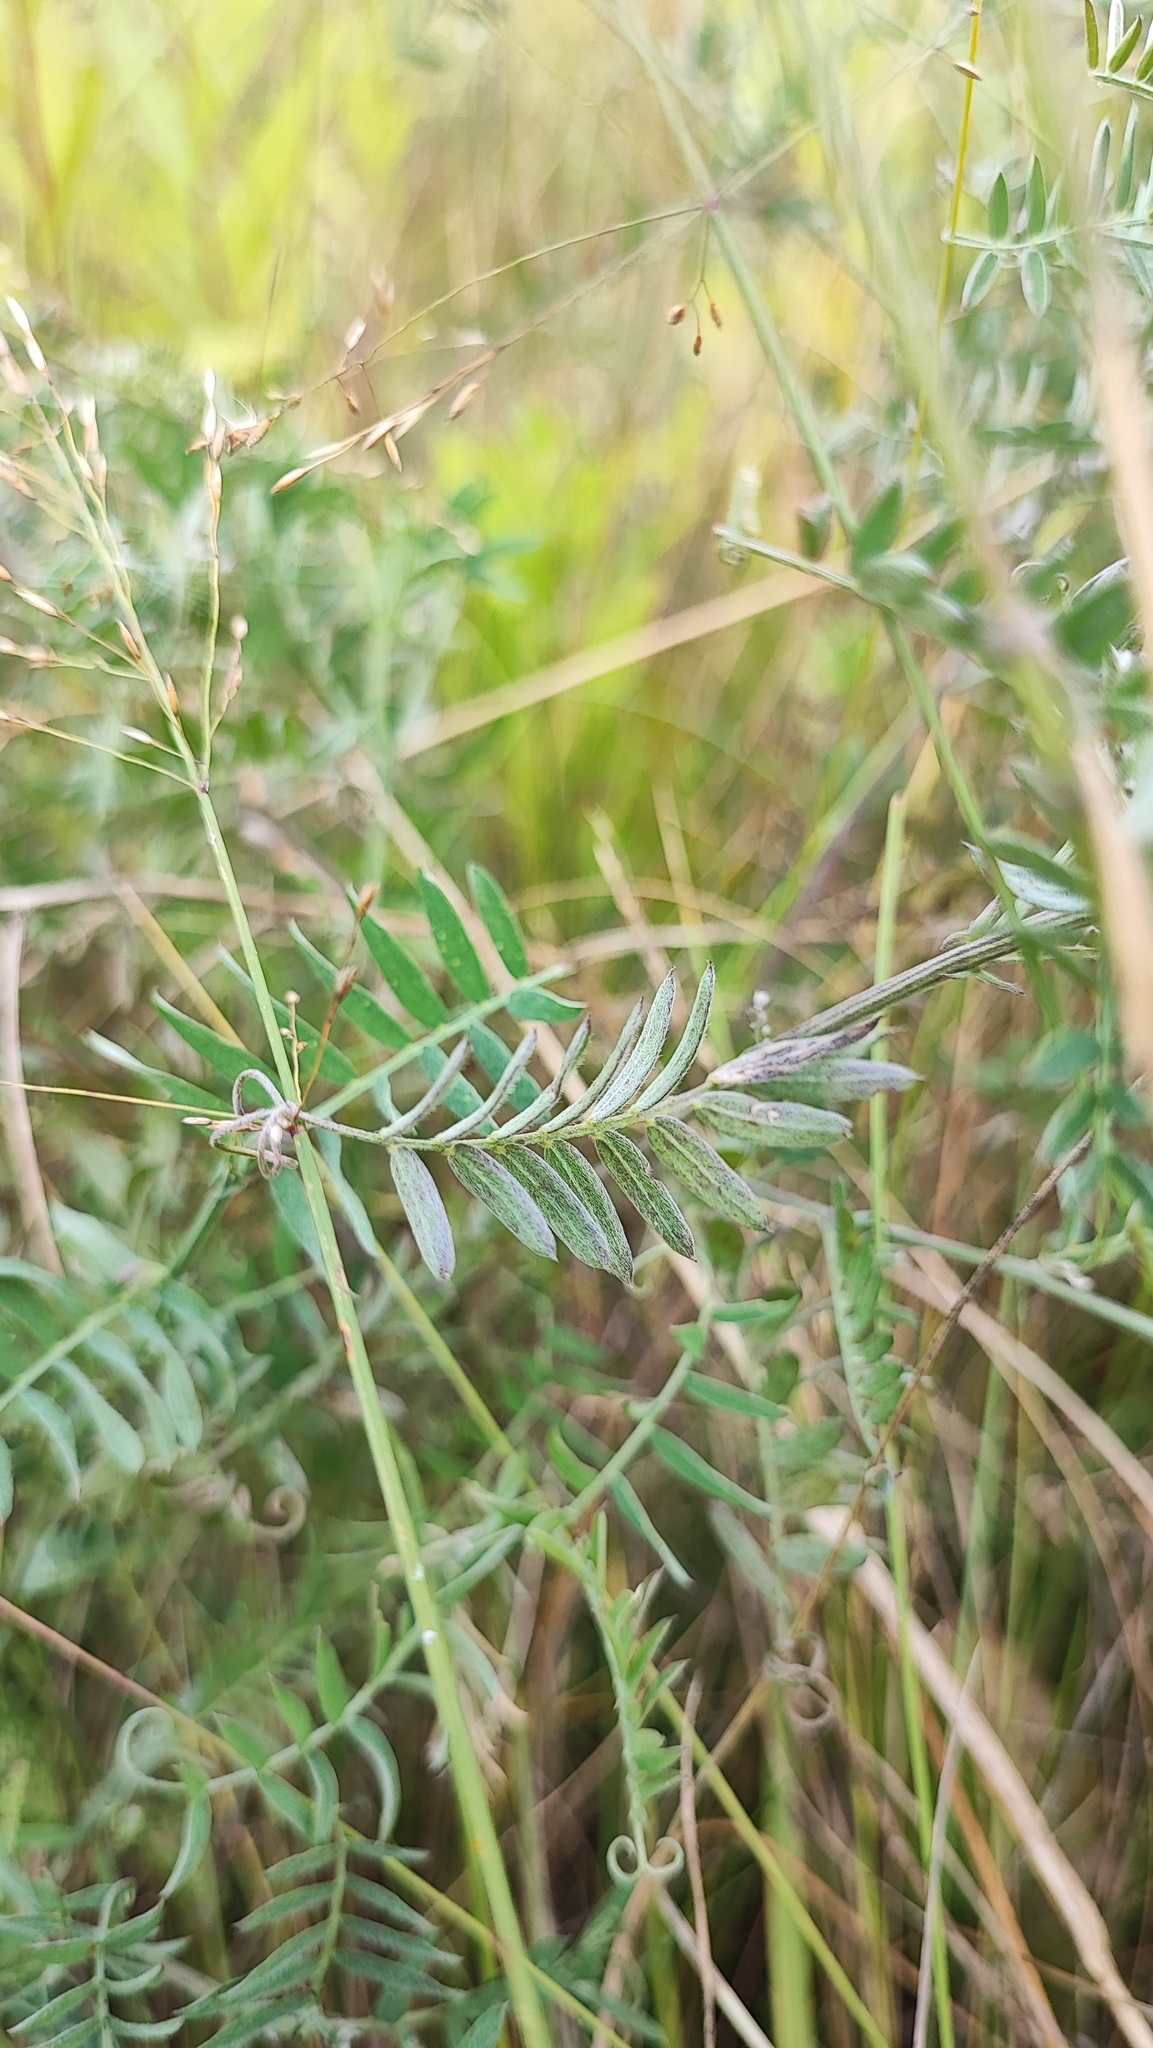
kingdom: Plantae
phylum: Tracheophyta
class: Magnoliopsida
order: Fabales
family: Fabaceae
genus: Vicia
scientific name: Vicia cracca
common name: Bird vetch
